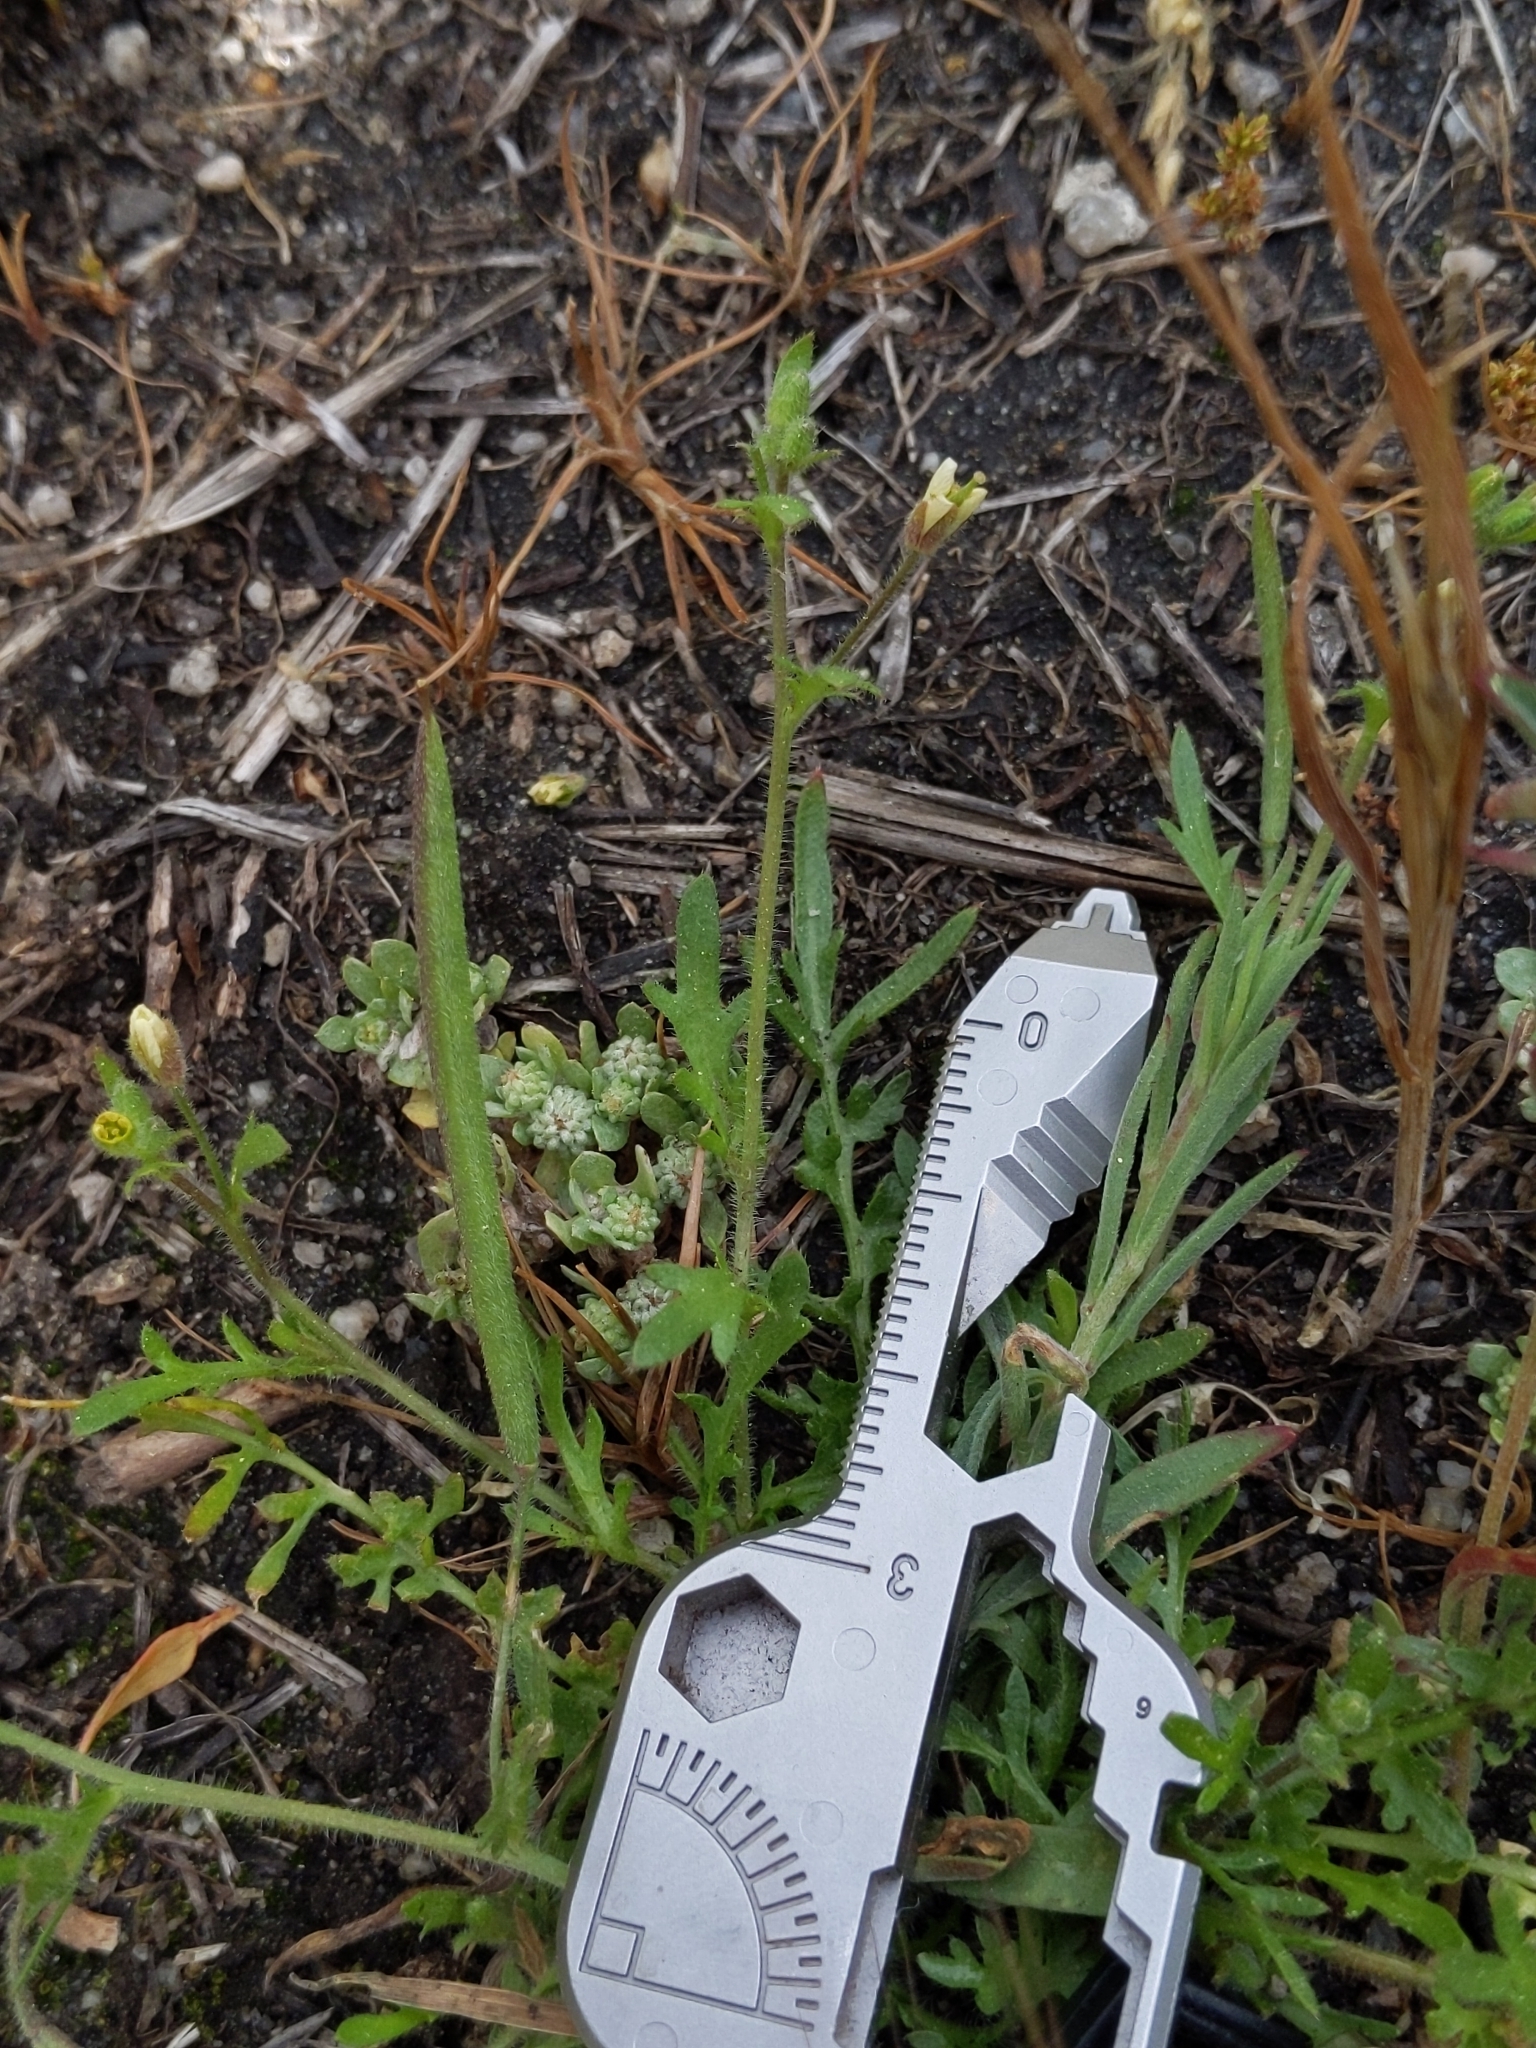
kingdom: Plantae
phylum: Tracheophyta
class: Magnoliopsida
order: Brassicales
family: Brassicaceae
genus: Tropidocarpum
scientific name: Tropidocarpum gracile
